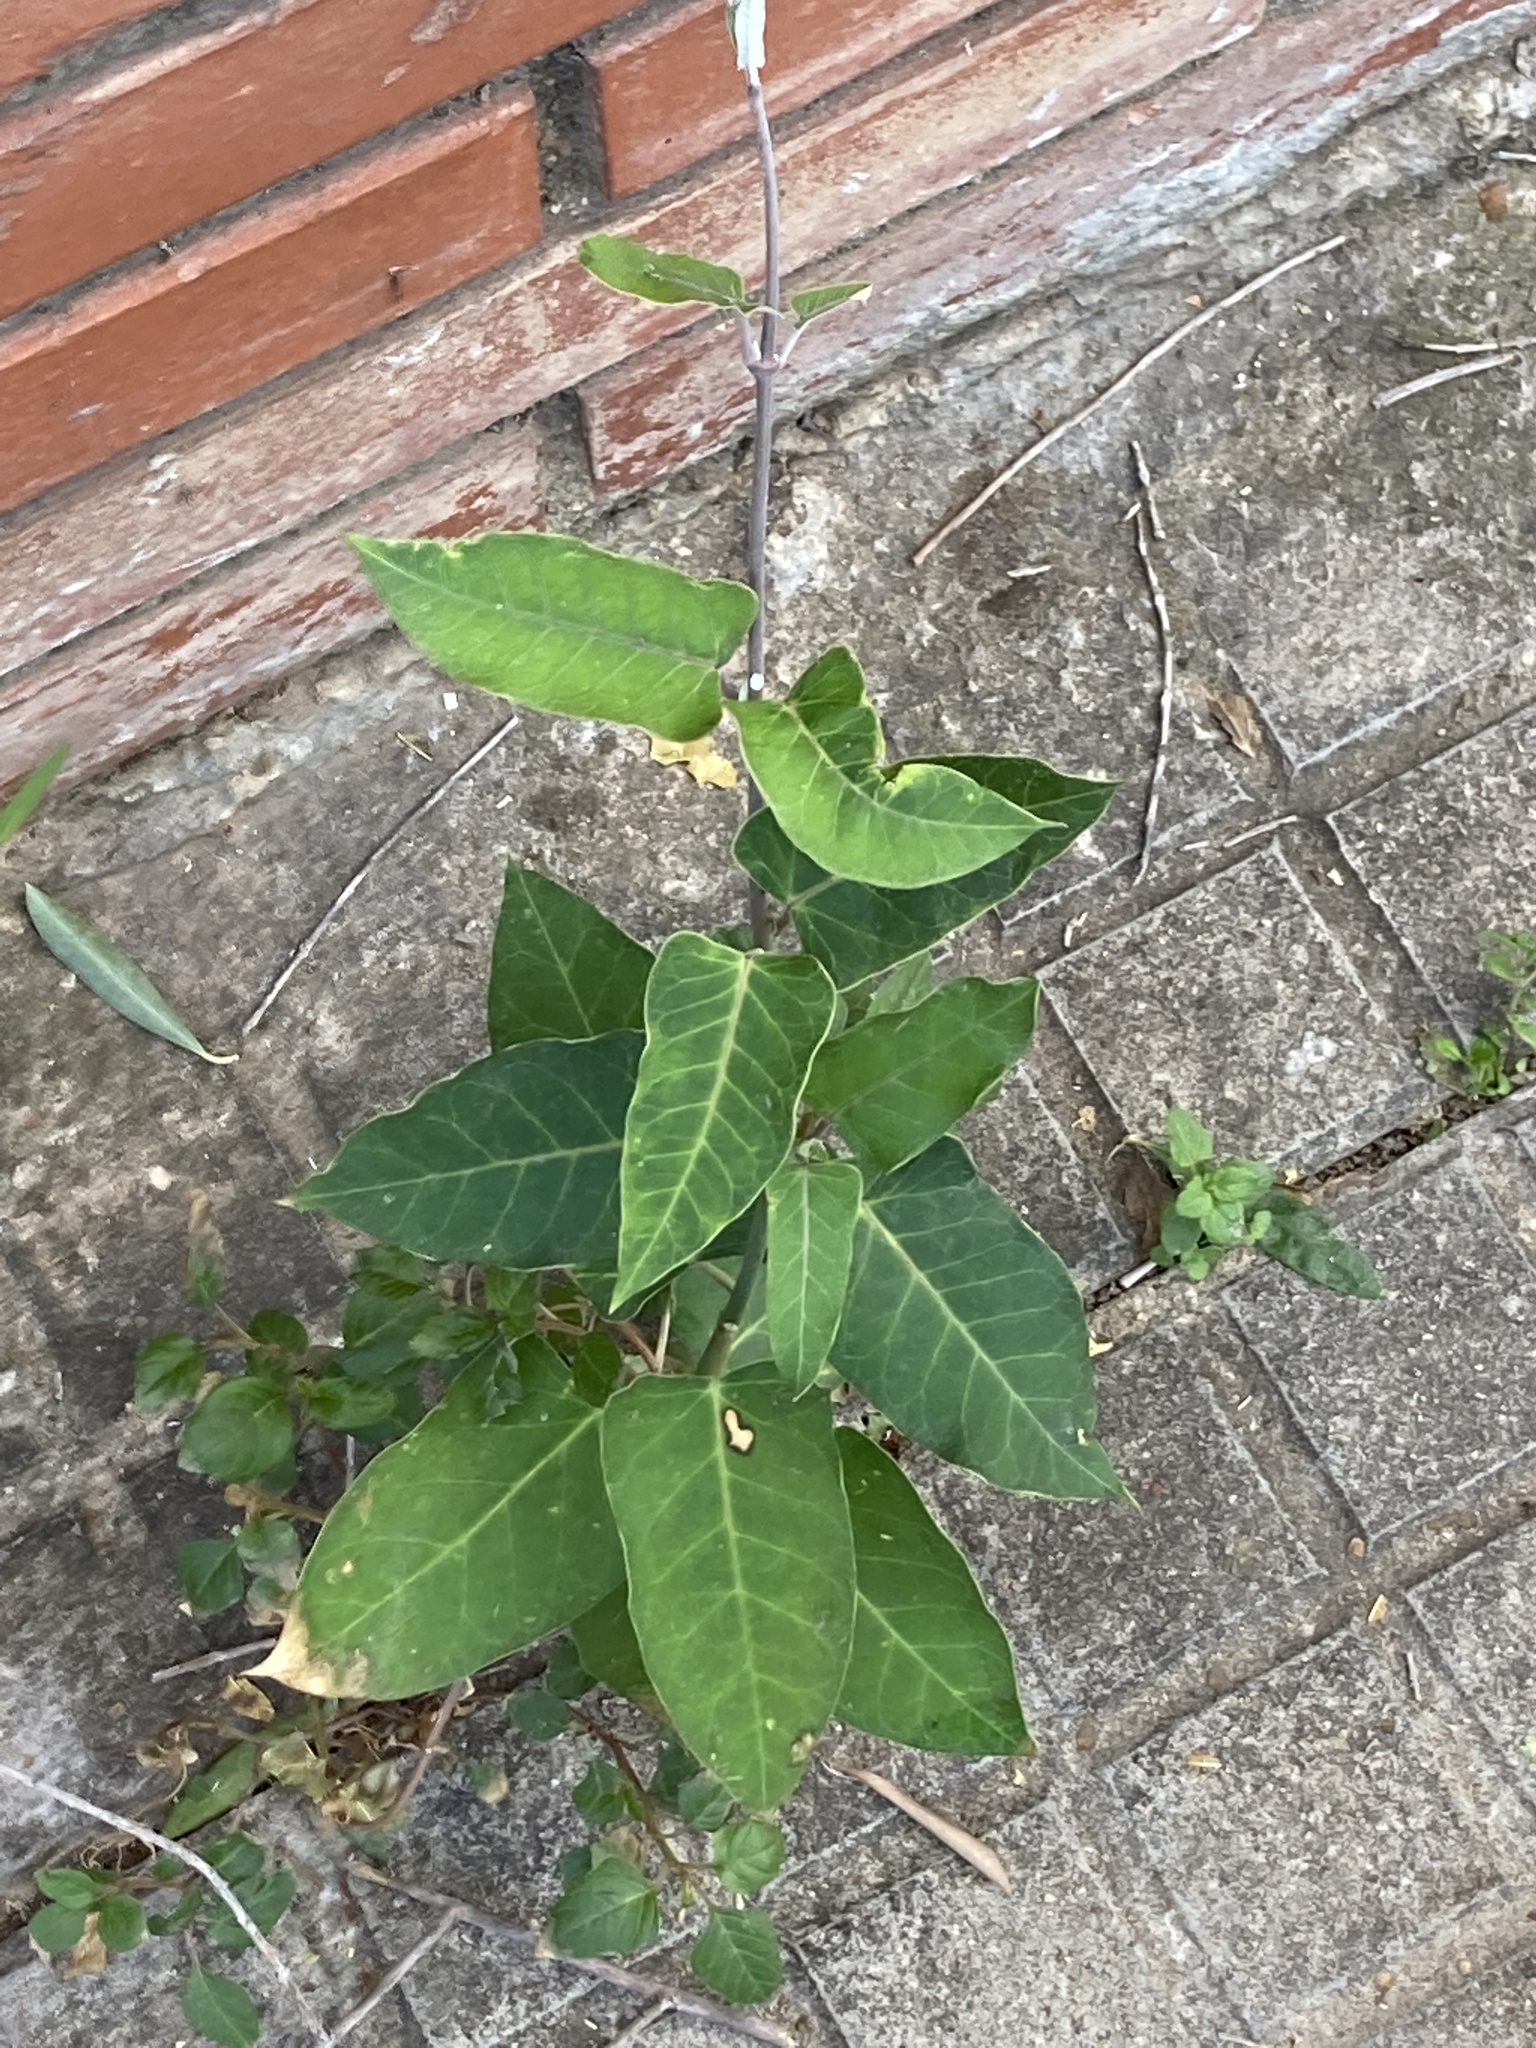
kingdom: Plantae
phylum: Tracheophyta
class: Magnoliopsida
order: Gentianales
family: Apocynaceae
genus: Araujia
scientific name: Araujia sericifera
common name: White bladderflower
